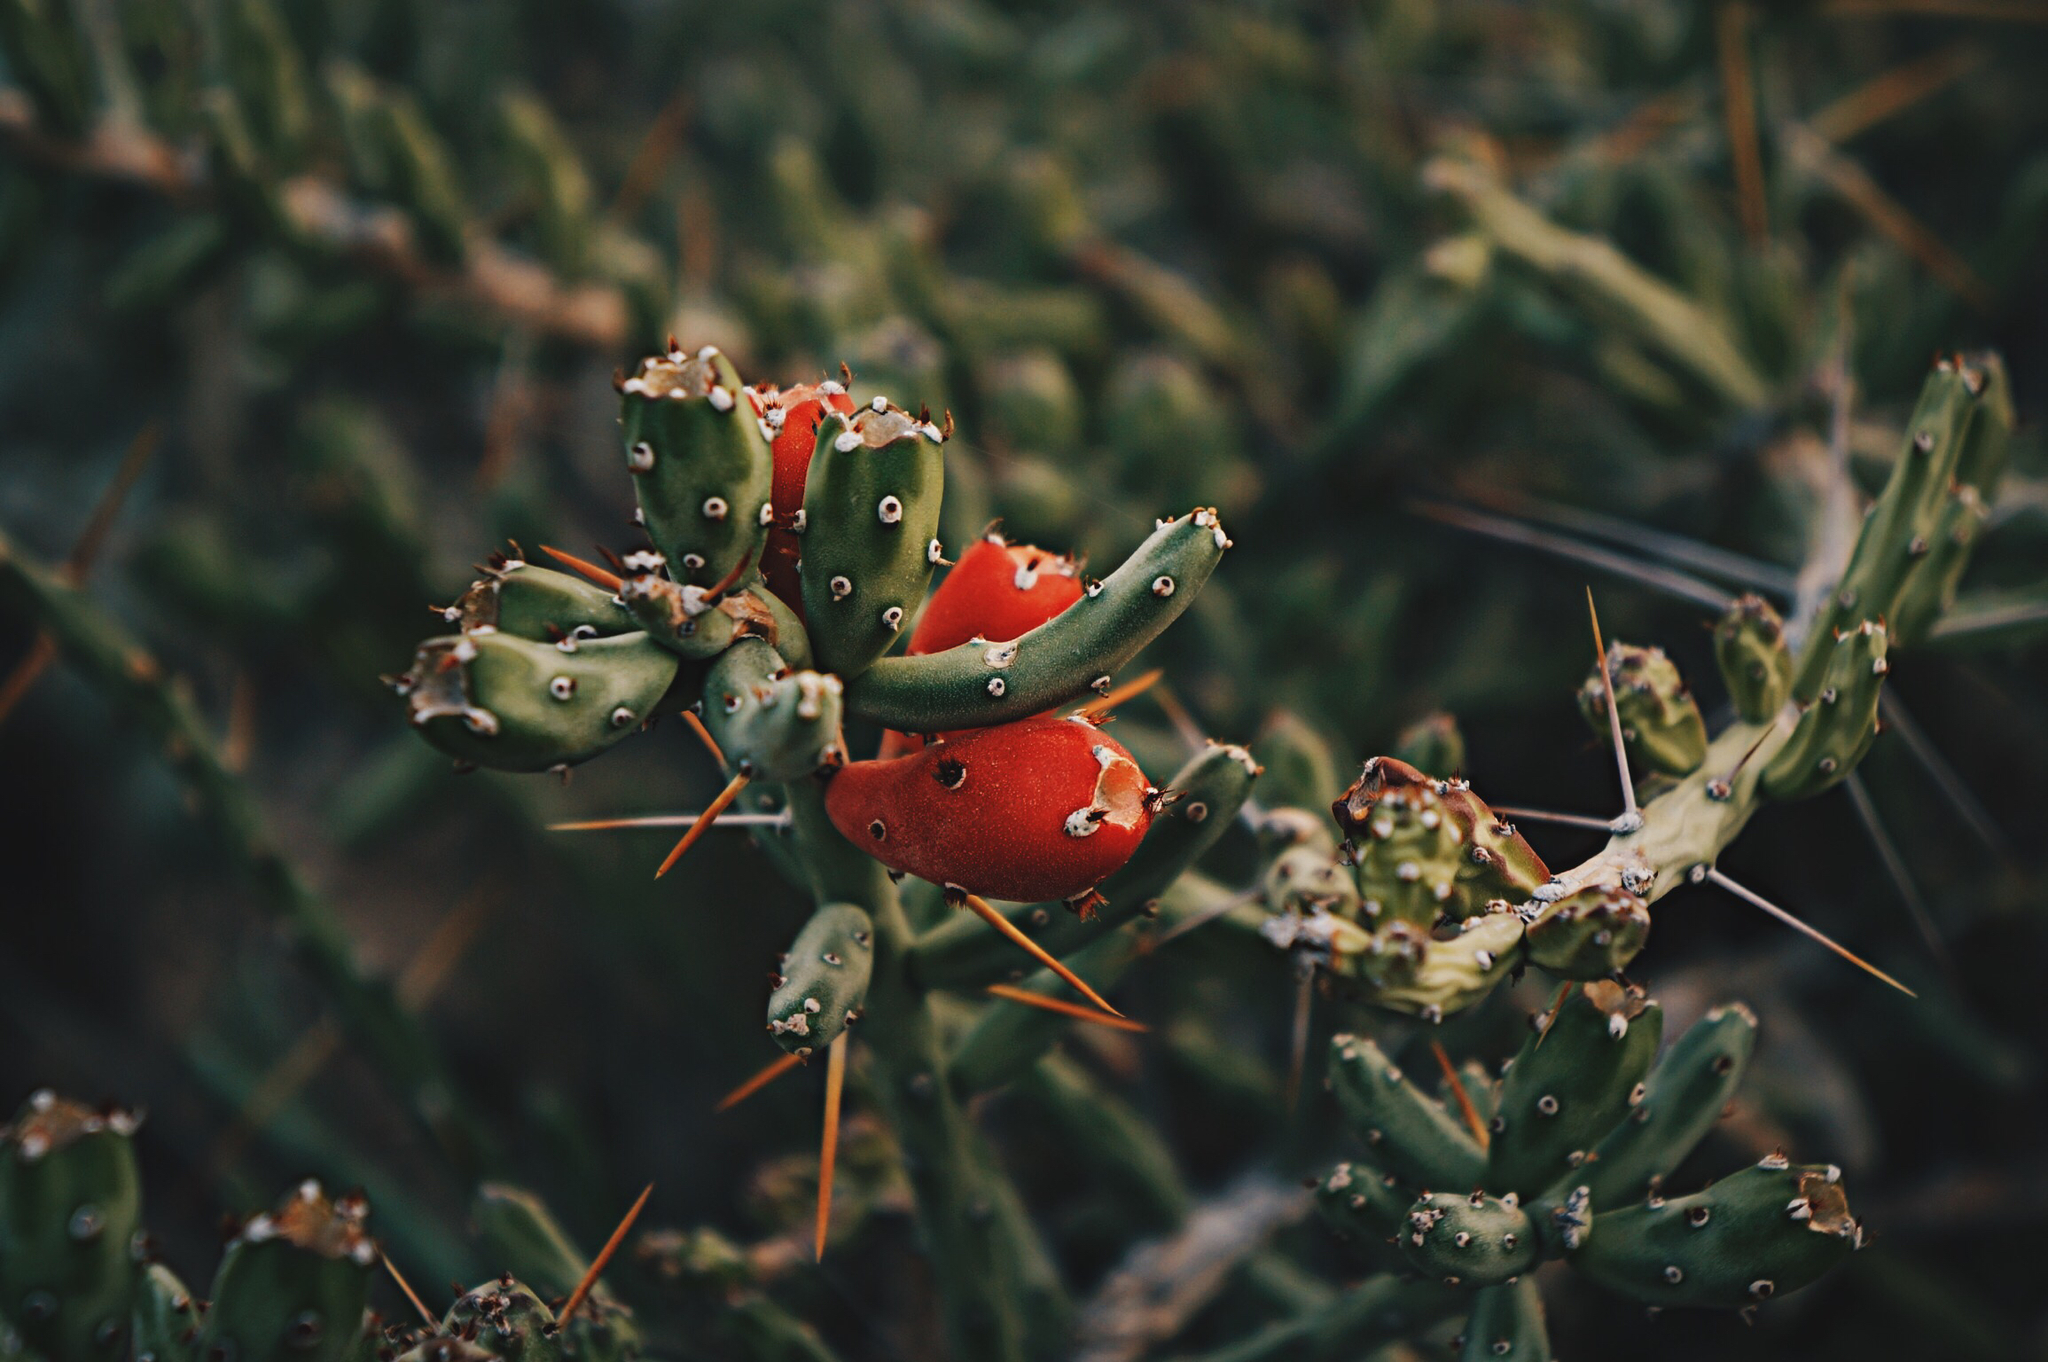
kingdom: Plantae
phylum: Tracheophyta
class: Magnoliopsida
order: Caryophyllales
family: Cactaceae
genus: Cylindropuntia
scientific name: Cylindropuntia leptocaulis
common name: Christmas cactus
